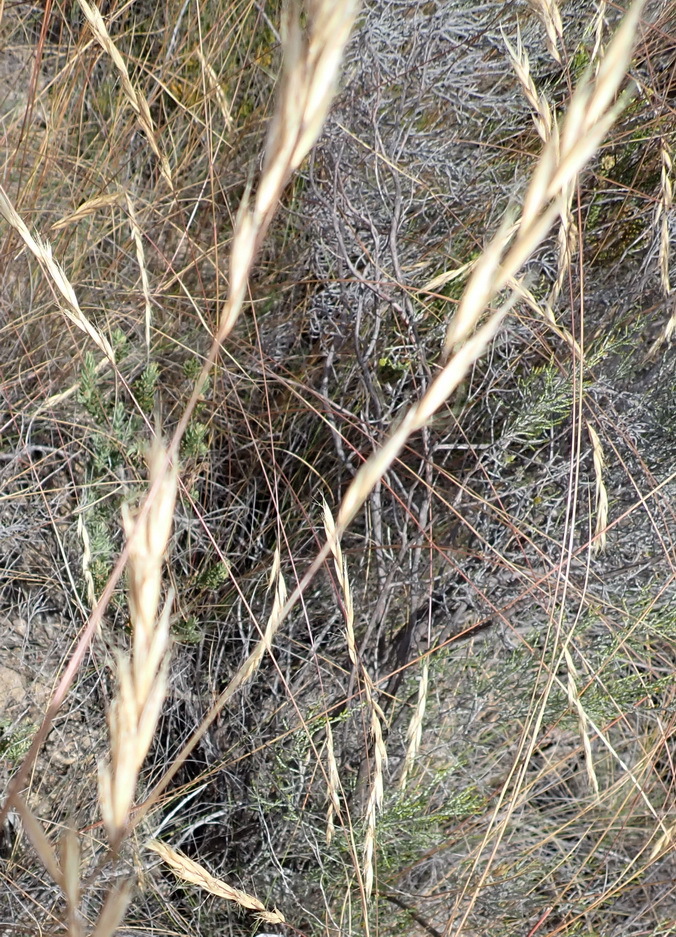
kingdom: Plantae
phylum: Tracheophyta
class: Liliopsida
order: Poales
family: Poaceae
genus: Pentameris
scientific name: Pentameris eriostoma
